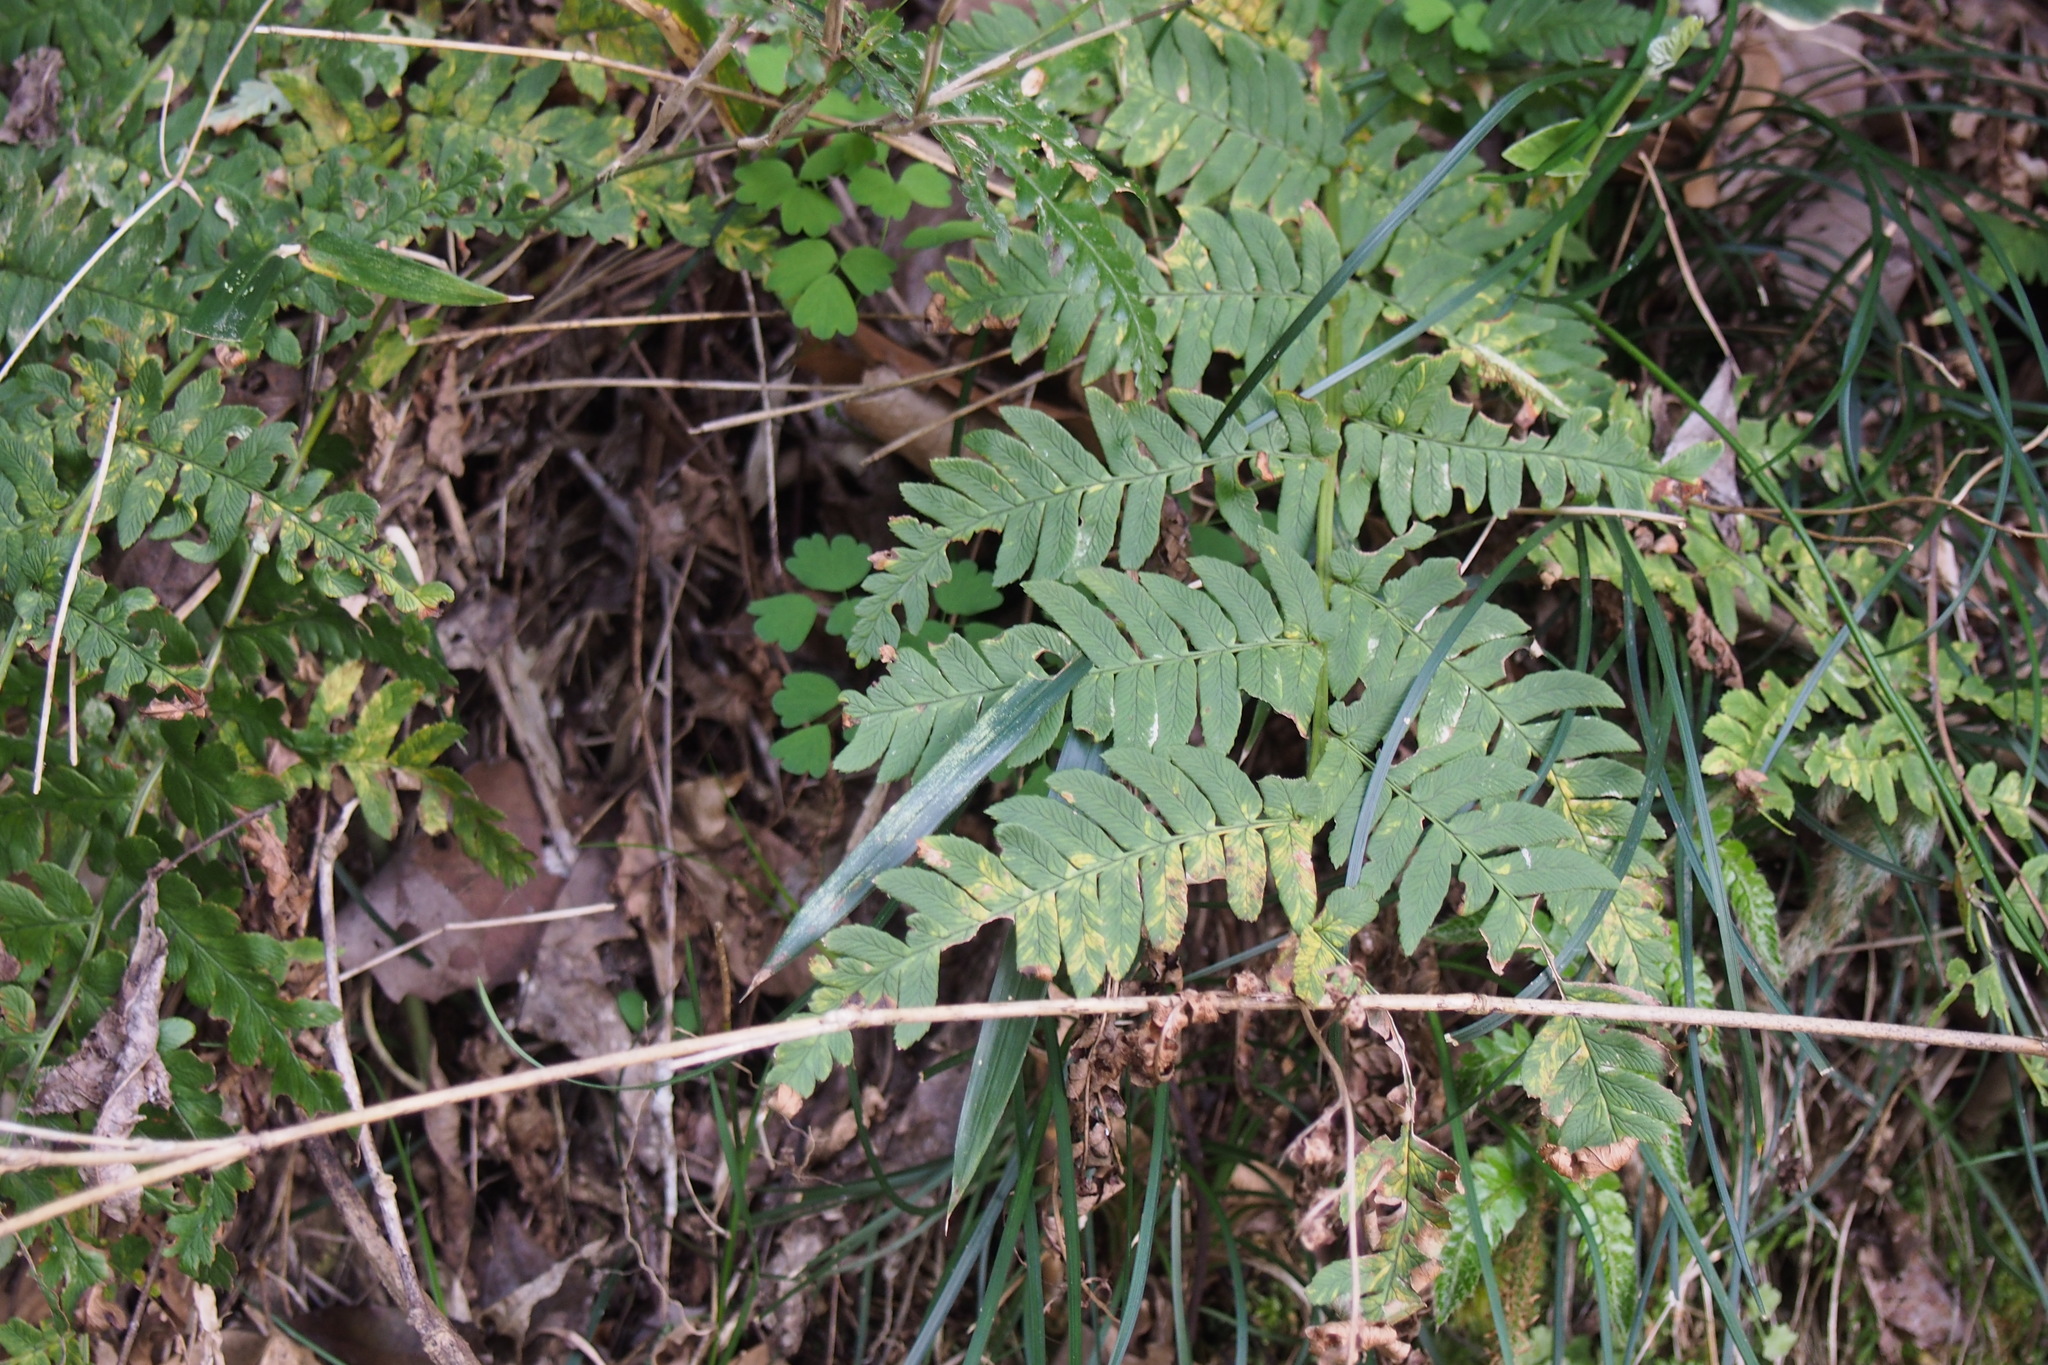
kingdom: Plantae
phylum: Tracheophyta
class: Polypodiopsida
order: Polypodiales
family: Dryopteridaceae
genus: Dryopteris
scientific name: Dryopteris lacera
